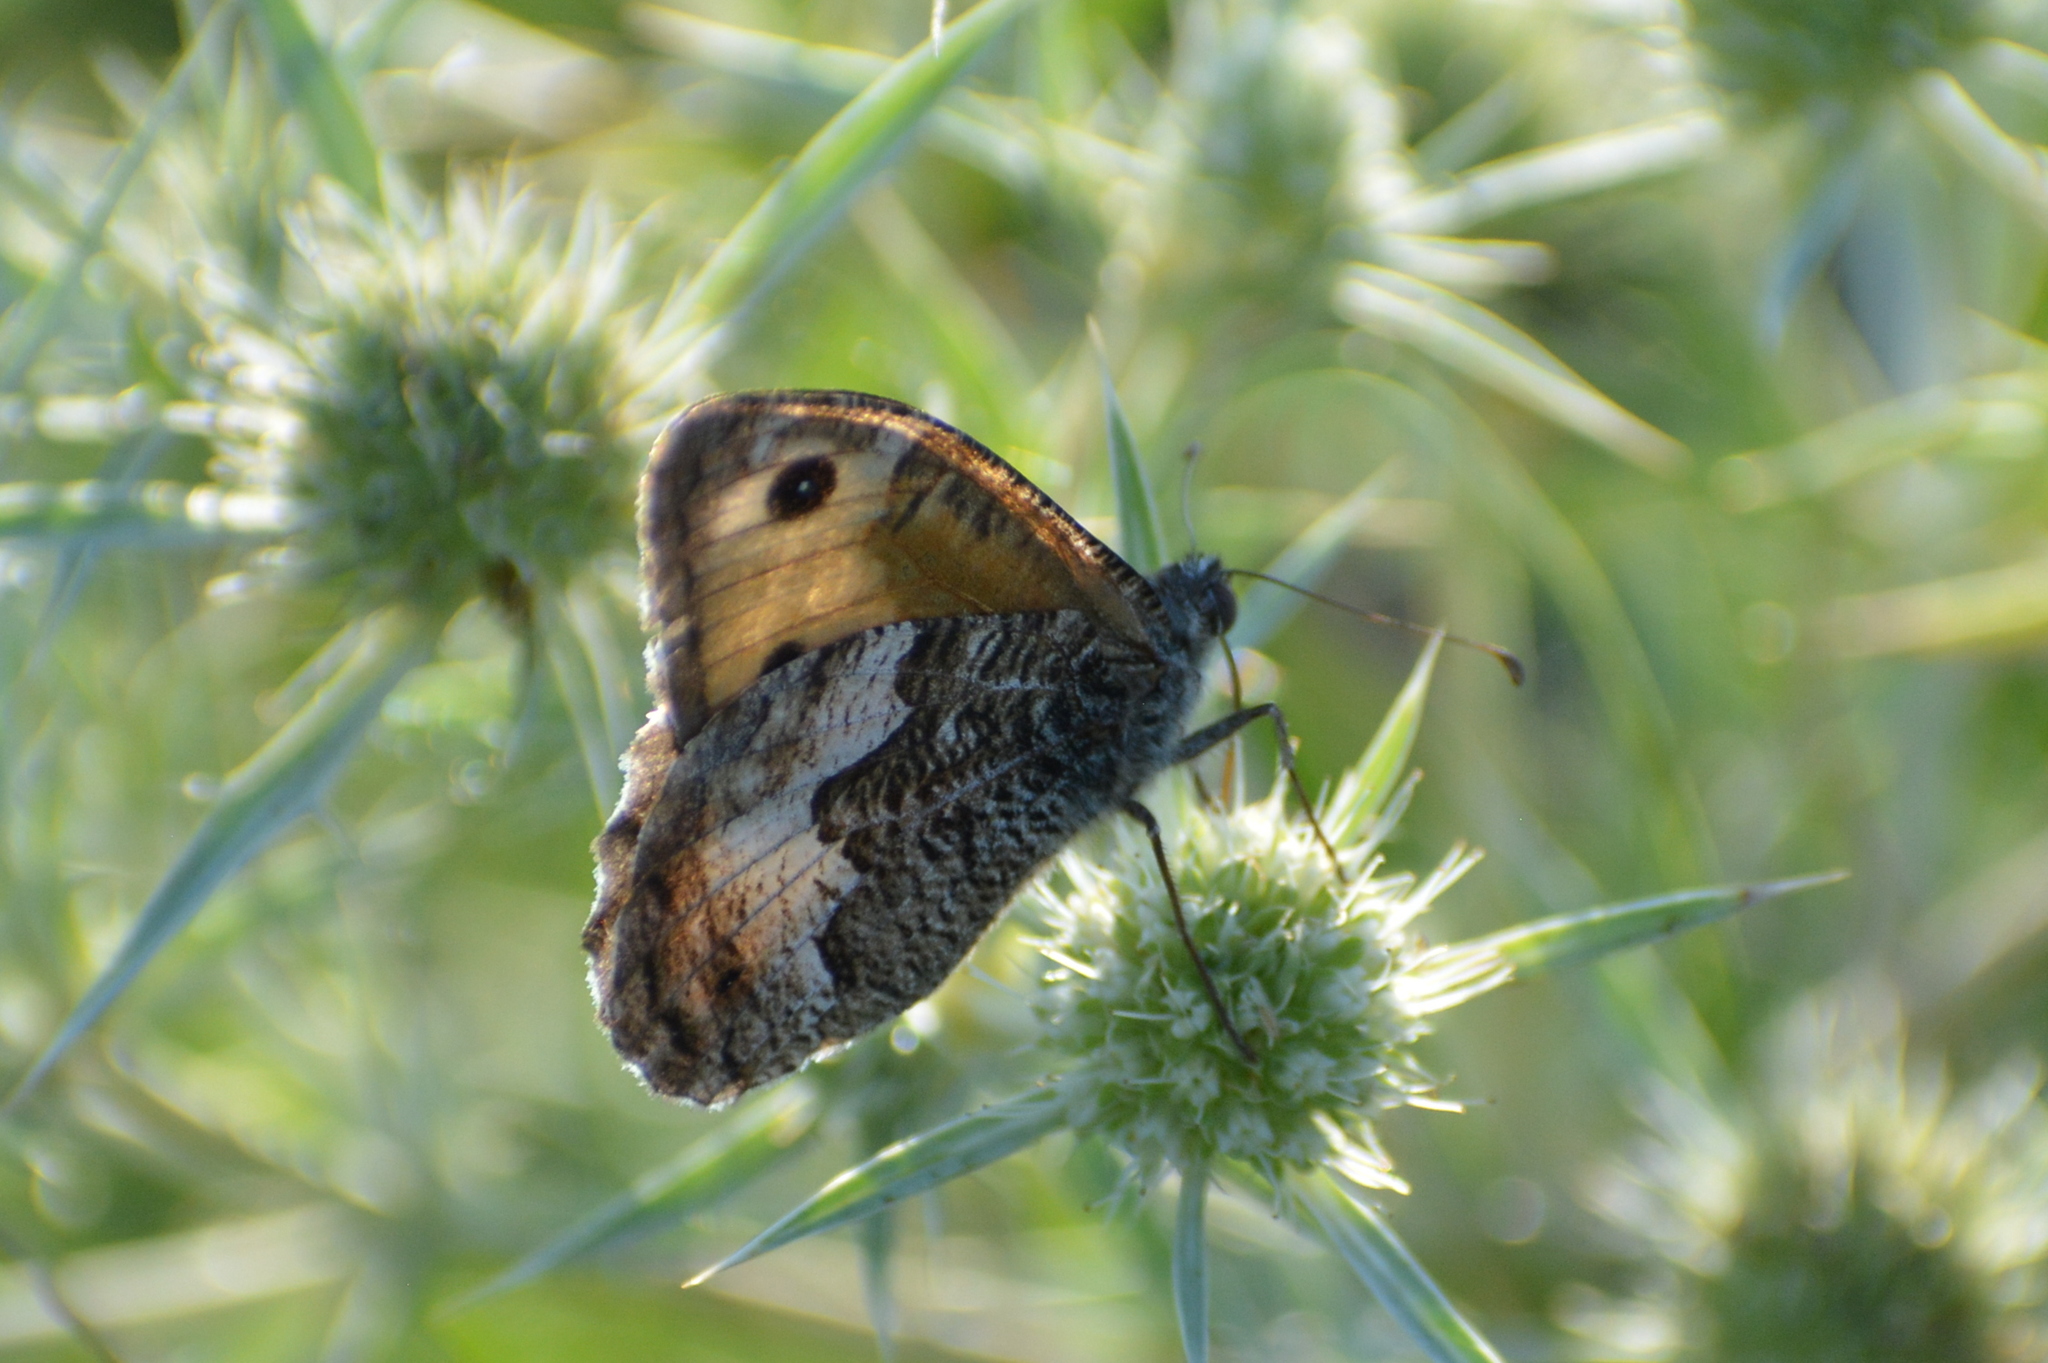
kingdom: Animalia
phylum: Arthropoda
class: Insecta
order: Lepidoptera
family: Nymphalidae
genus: Hipparchia
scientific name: Hipparchia semele
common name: Grayling
